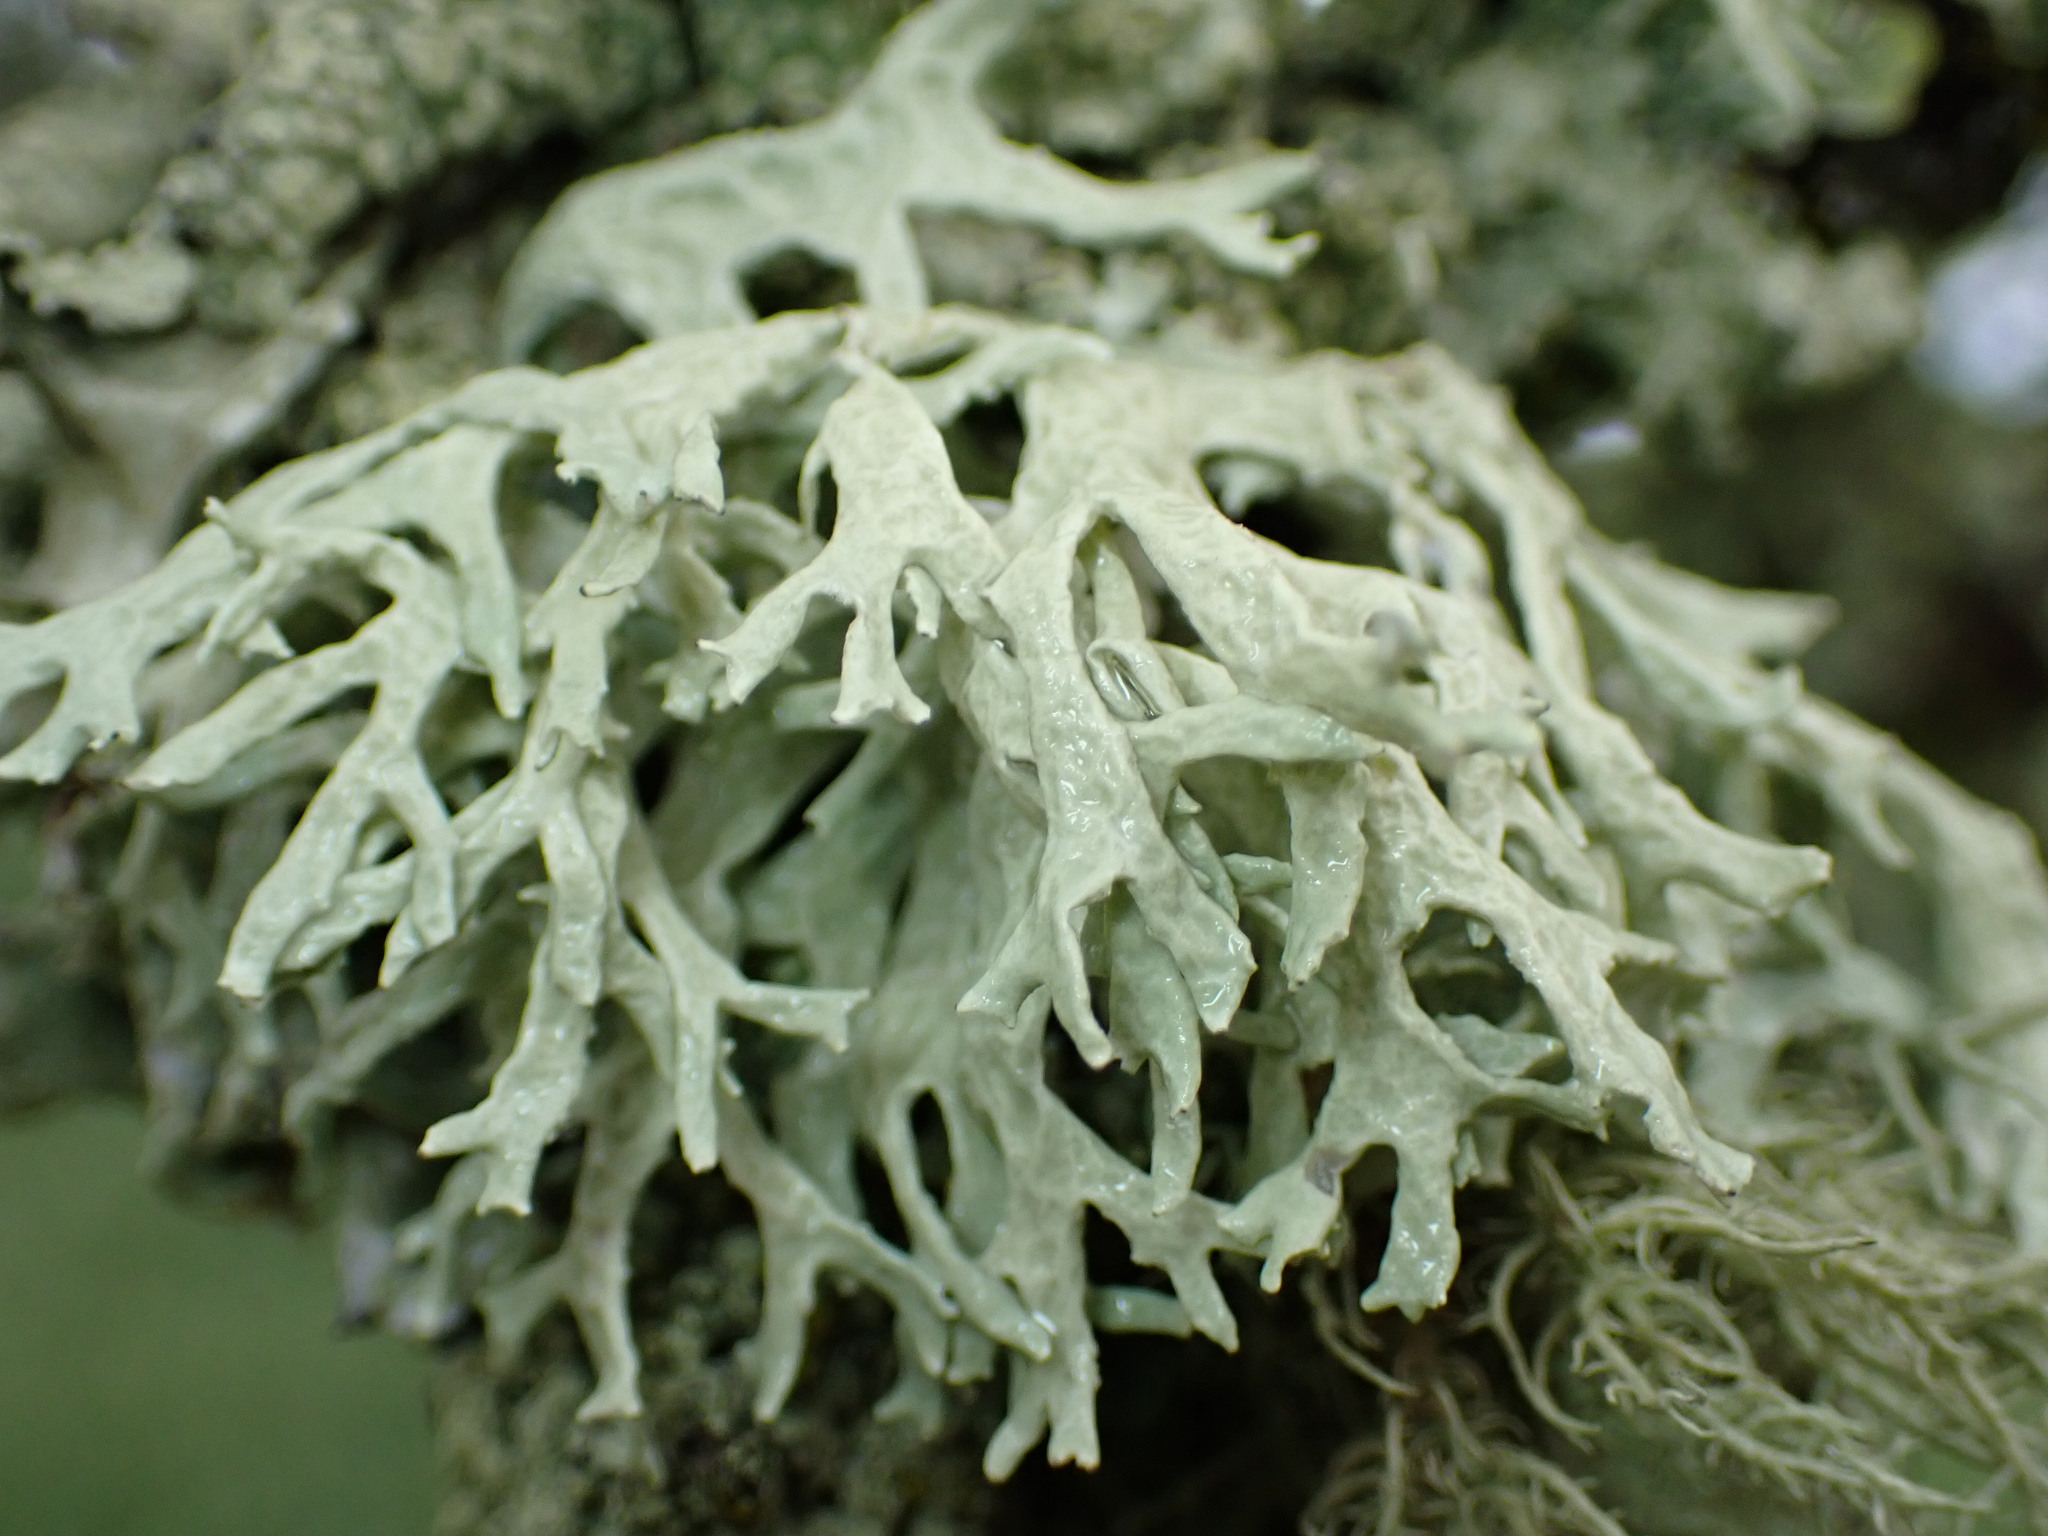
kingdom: Fungi
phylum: Ascomycota
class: Lecanoromycetes
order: Lecanorales
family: Parmeliaceae
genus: Evernia
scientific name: Evernia prunastri
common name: Oak moss
